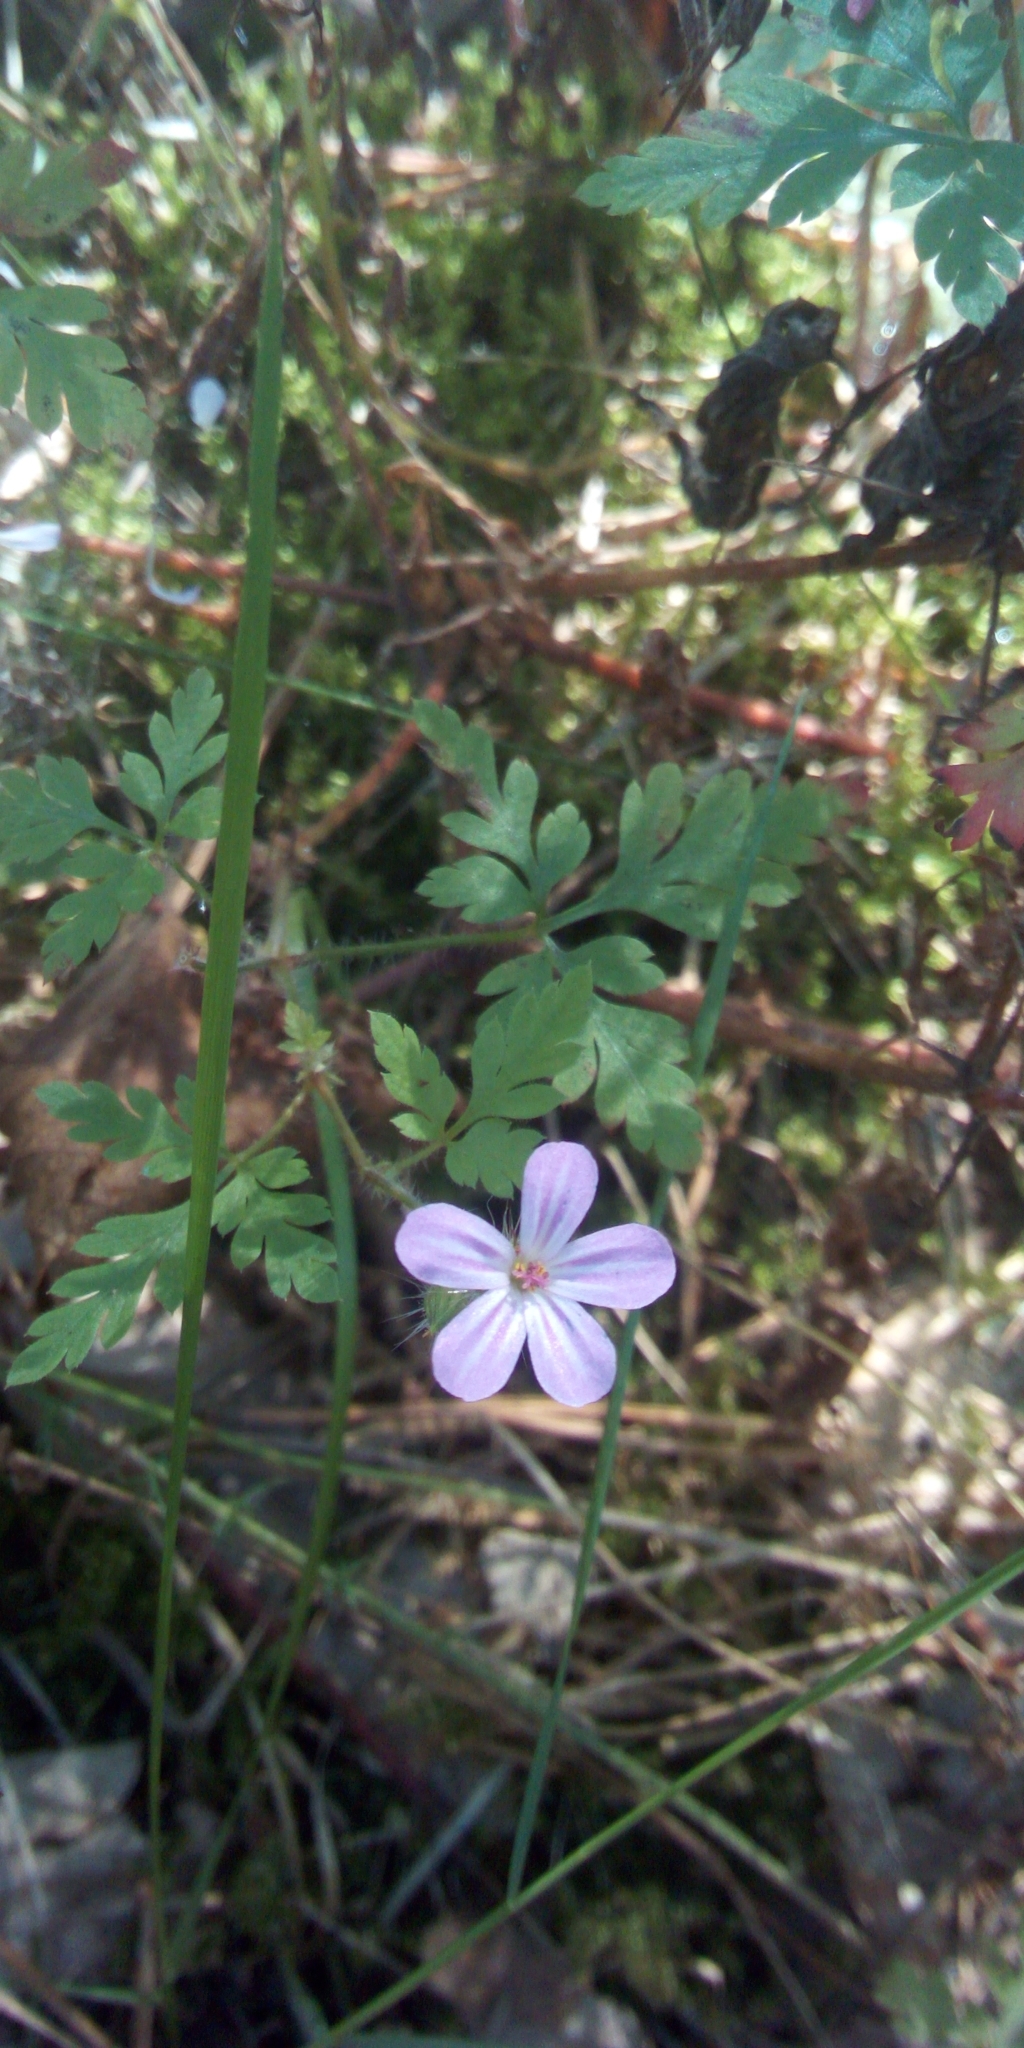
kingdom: Plantae
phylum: Tracheophyta
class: Magnoliopsida
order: Geraniales
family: Geraniaceae
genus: Geranium
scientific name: Geranium robertianum
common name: Herb-robert
